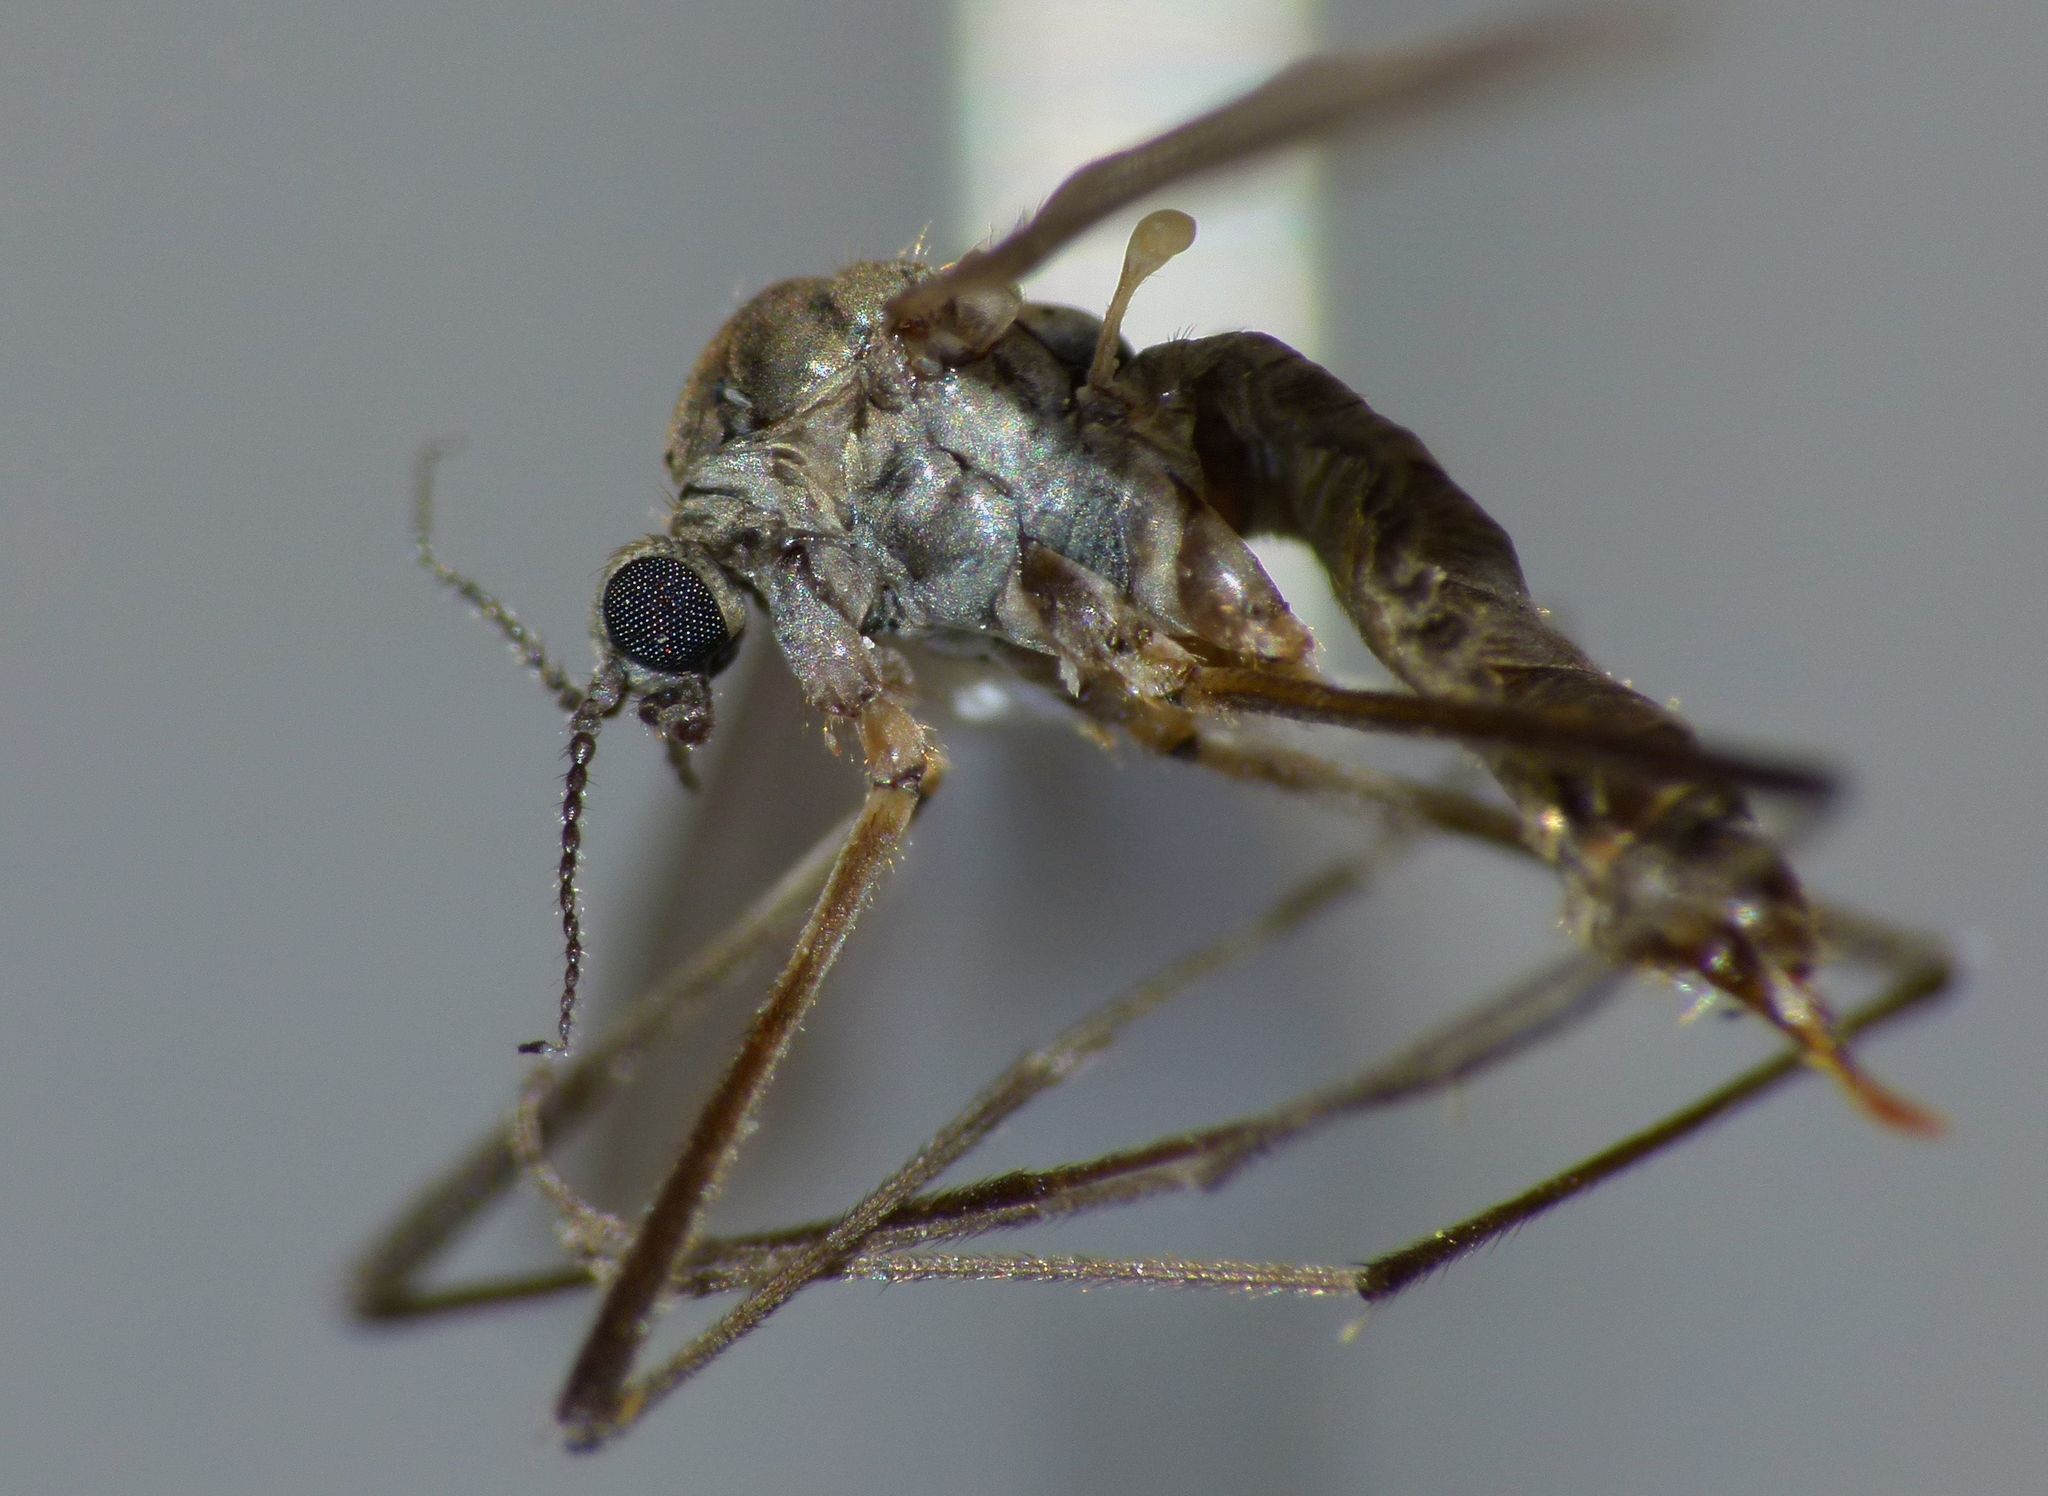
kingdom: Animalia
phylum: Arthropoda
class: Insecta
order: Diptera
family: Limoniidae
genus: Rhabdomastix
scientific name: Rhabdomastix monilicornis
